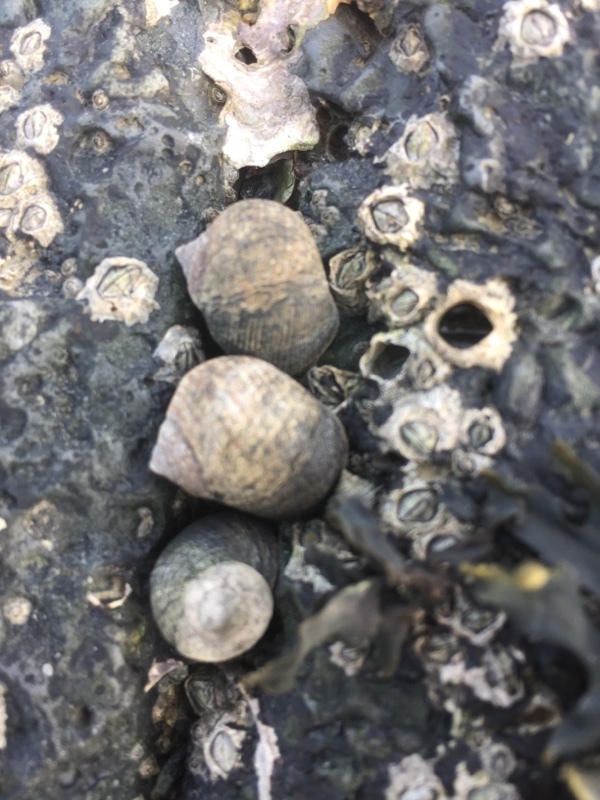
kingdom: Animalia
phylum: Mollusca
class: Gastropoda
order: Littorinimorpha
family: Littorinidae
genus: Littorina
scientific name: Littorina littorea
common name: Common periwinkle
